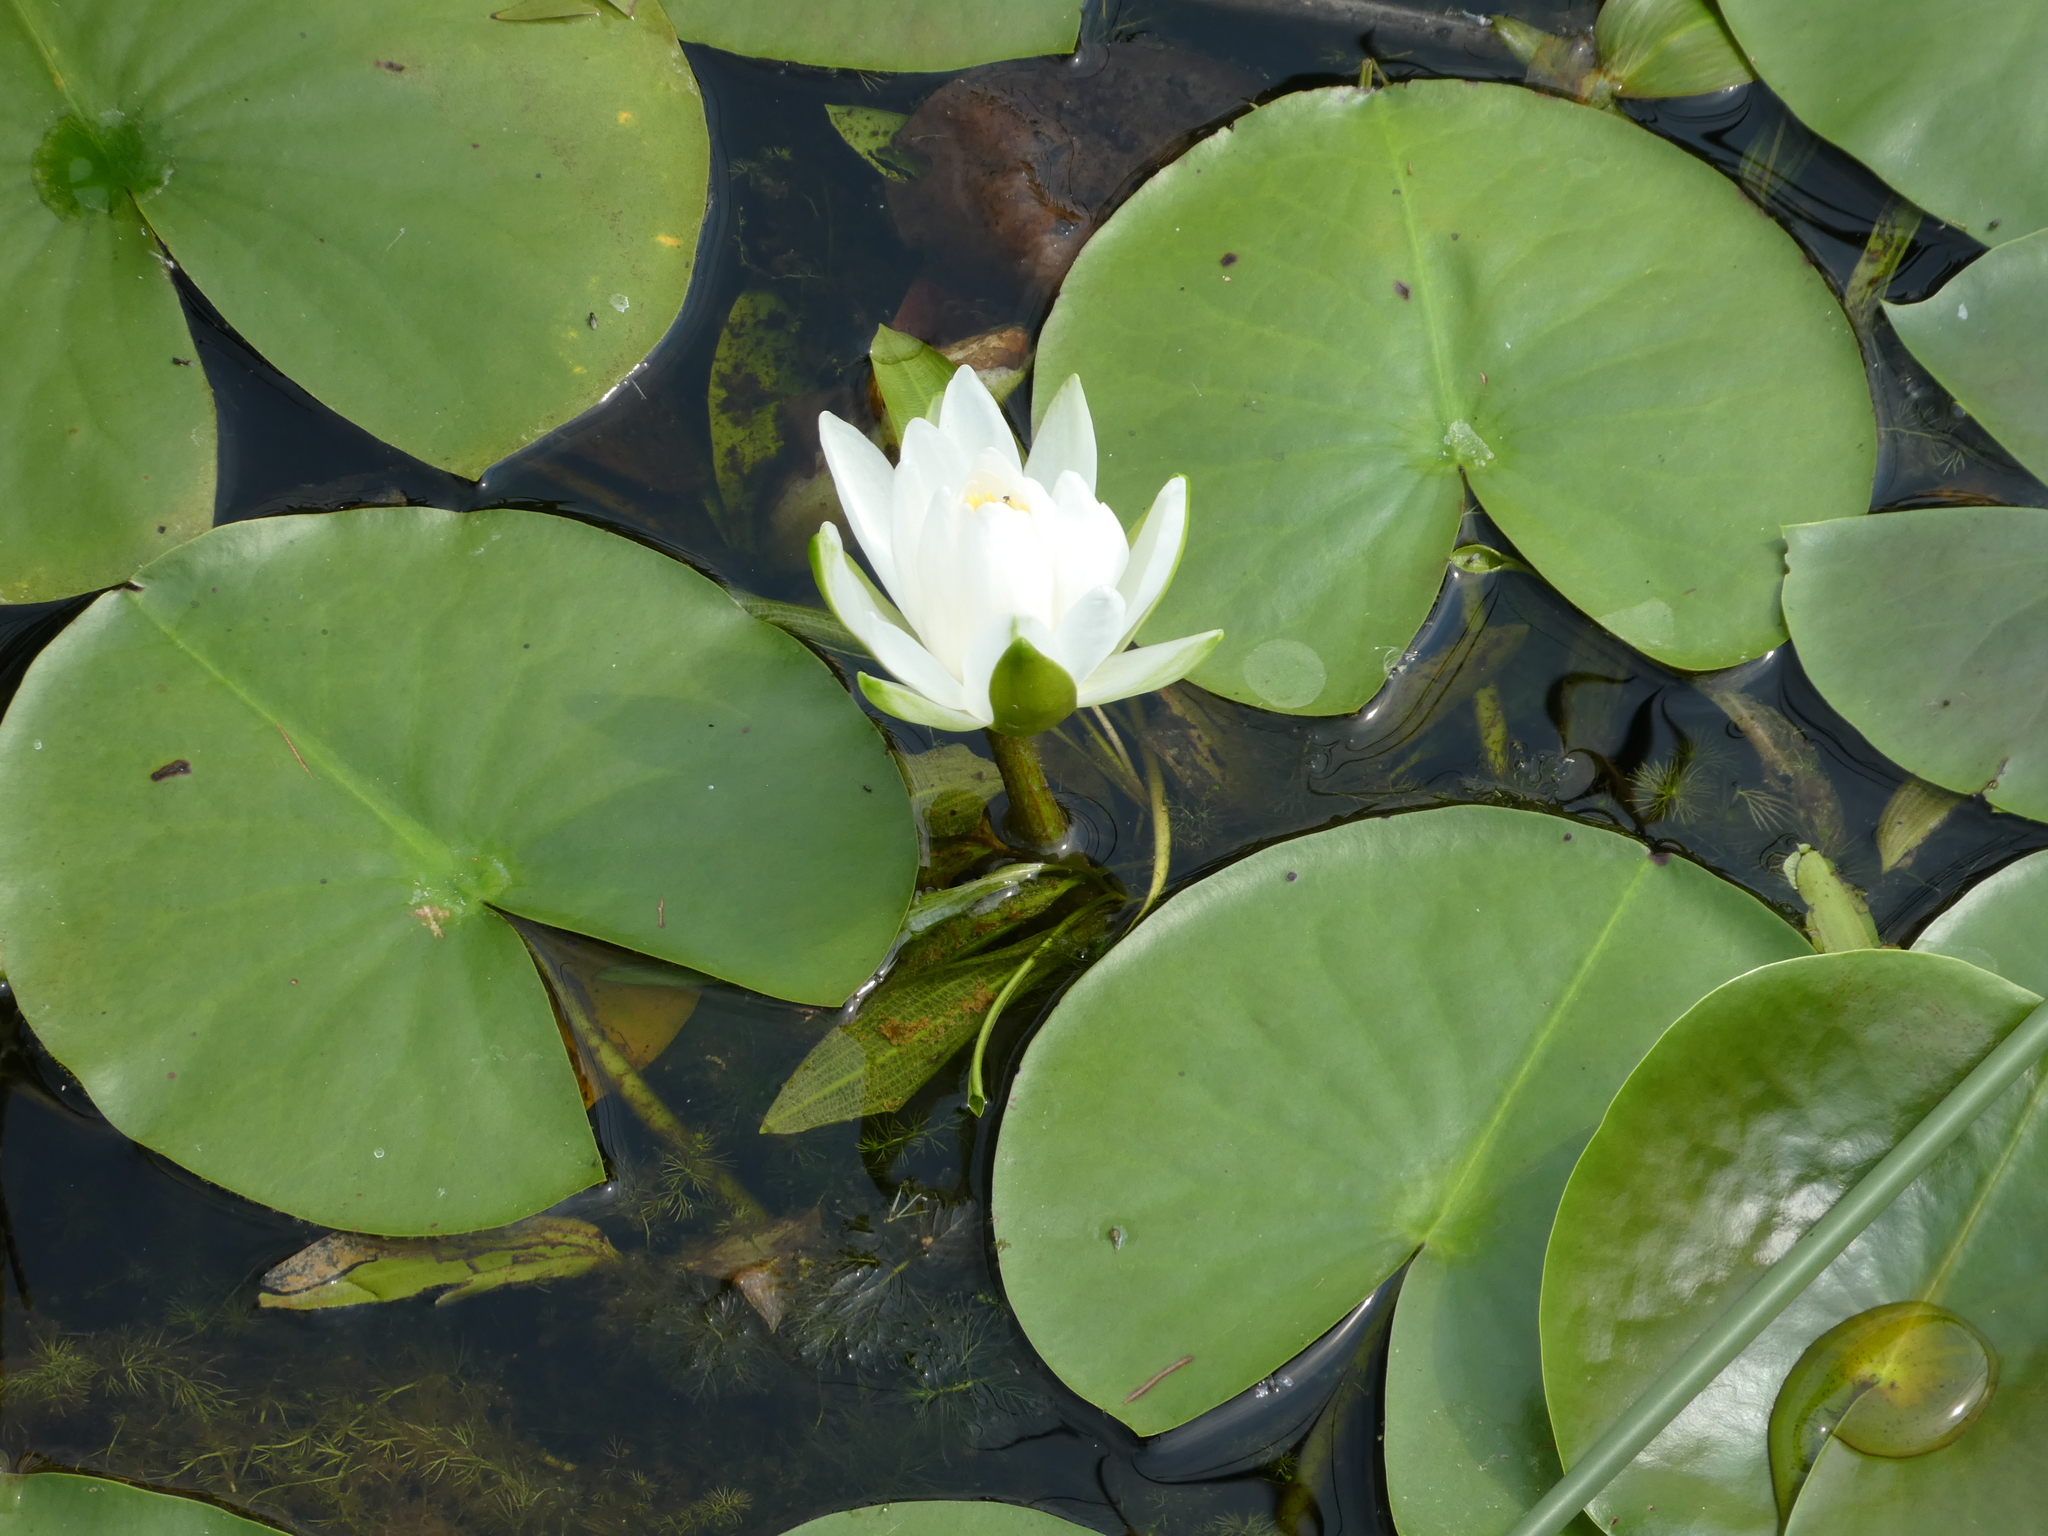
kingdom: Plantae
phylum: Tracheophyta
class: Magnoliopsida
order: Nymphaeales
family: Nymphaeaceae
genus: Nymphaea
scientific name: Nymphaea odorata
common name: Fragrant water-lily
